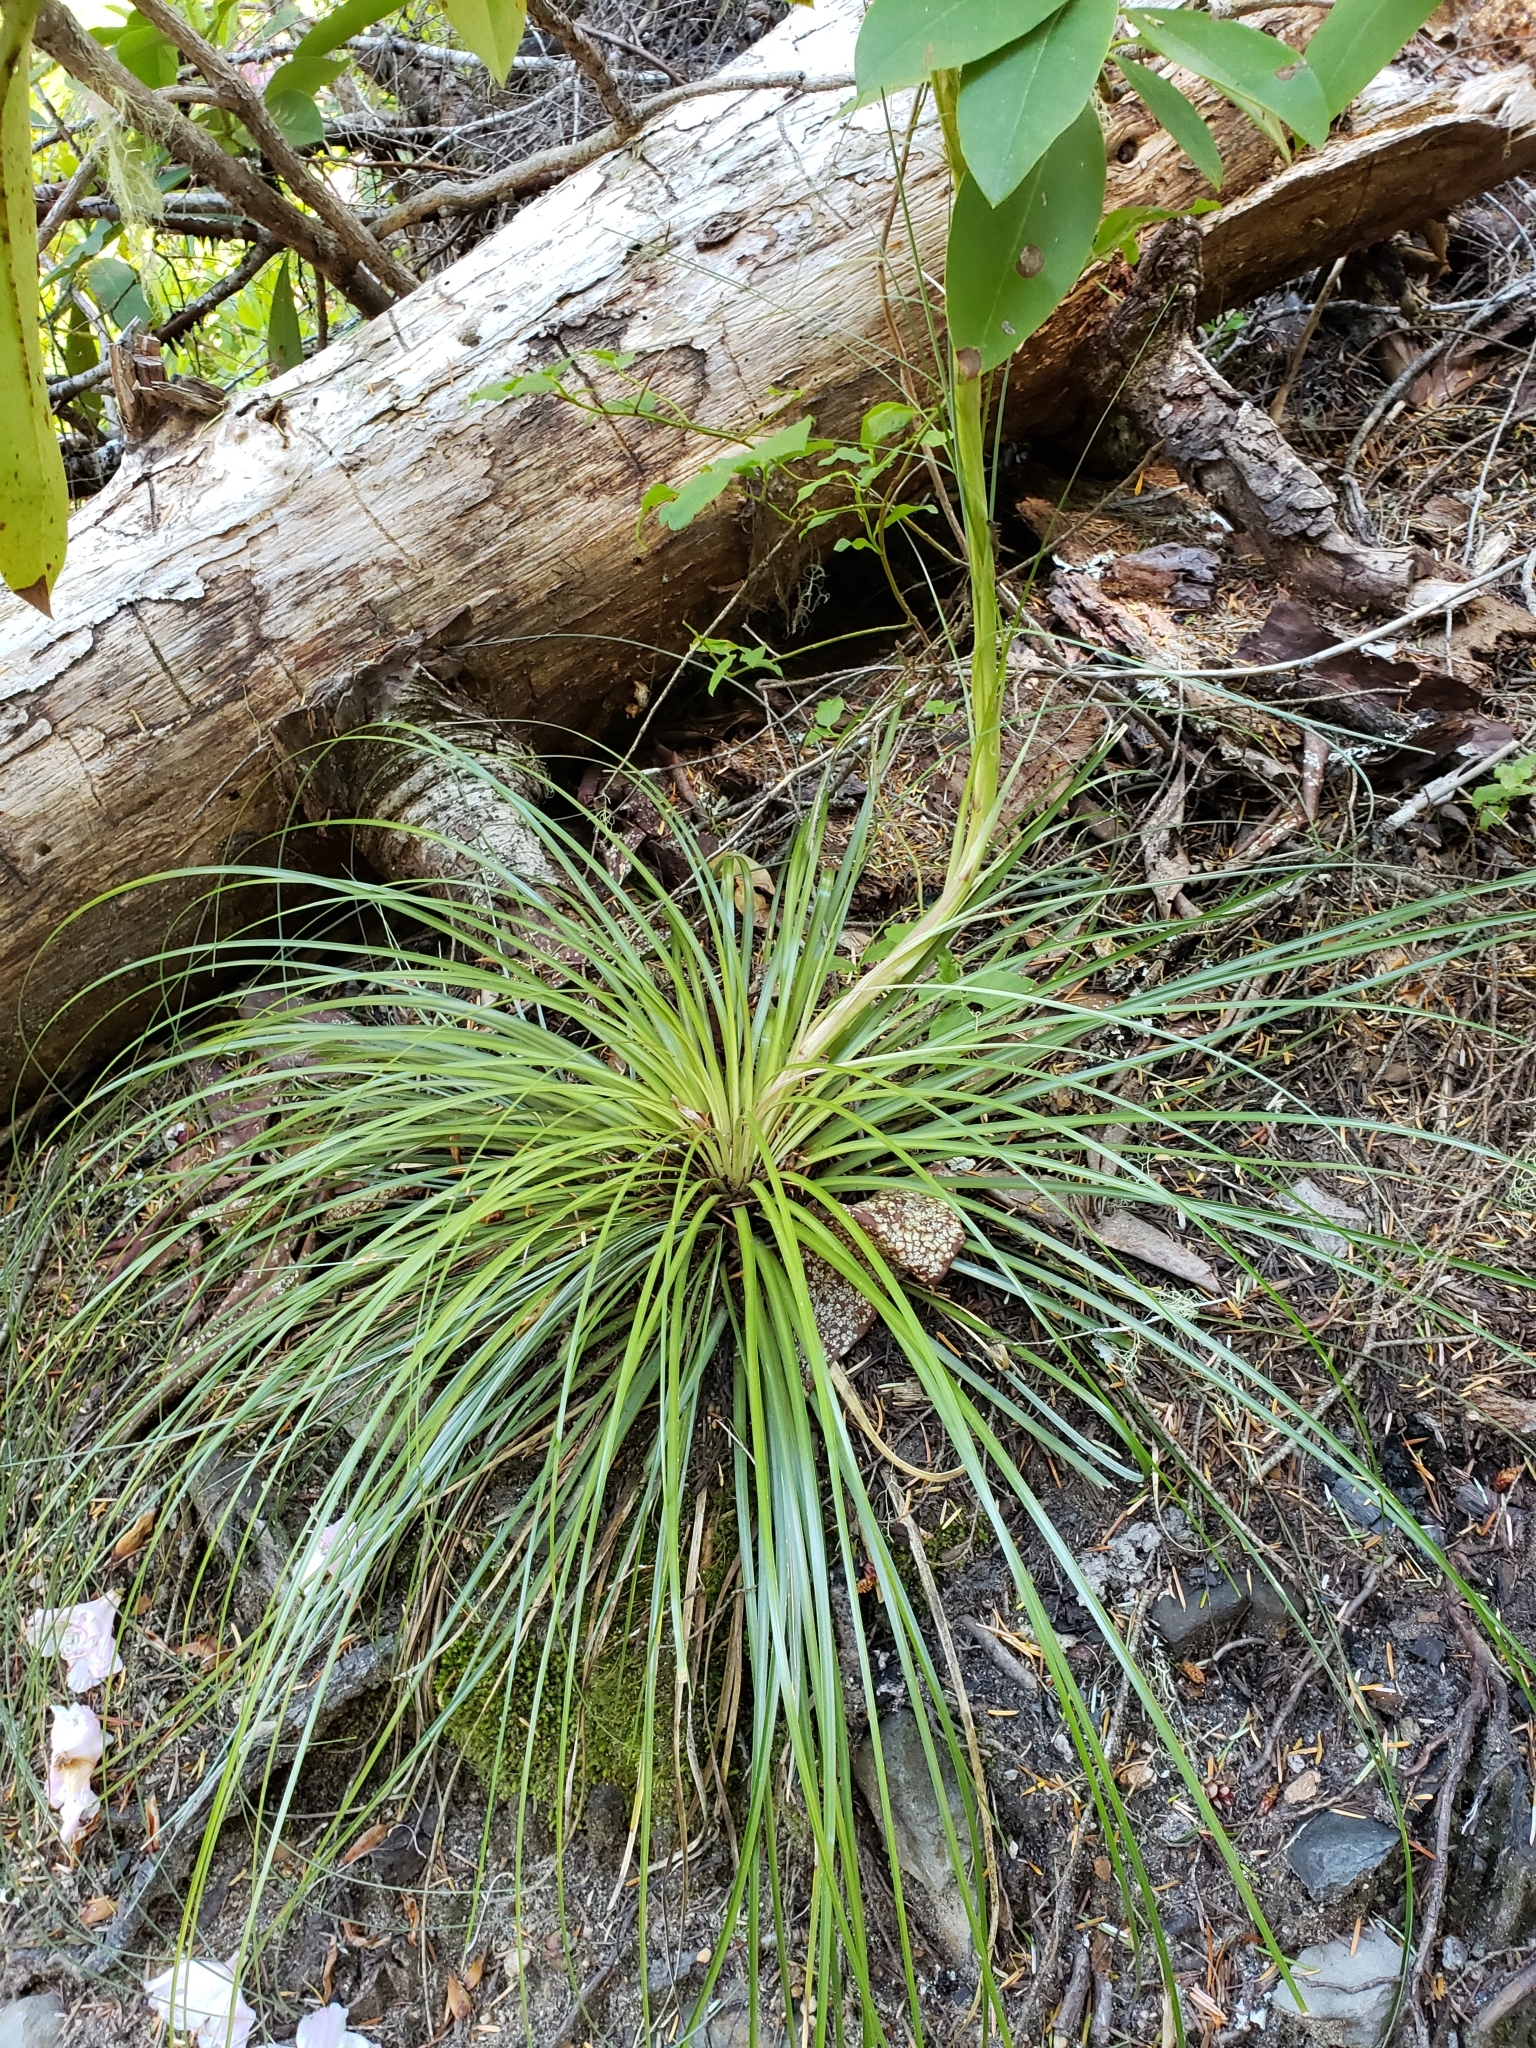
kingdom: Plantae
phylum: Tracheophyta
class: Liliopsida
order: Liliales
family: Melanthiaceae
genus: Xerophyllum
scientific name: Xerophyllum tenax
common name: Bear-grass
